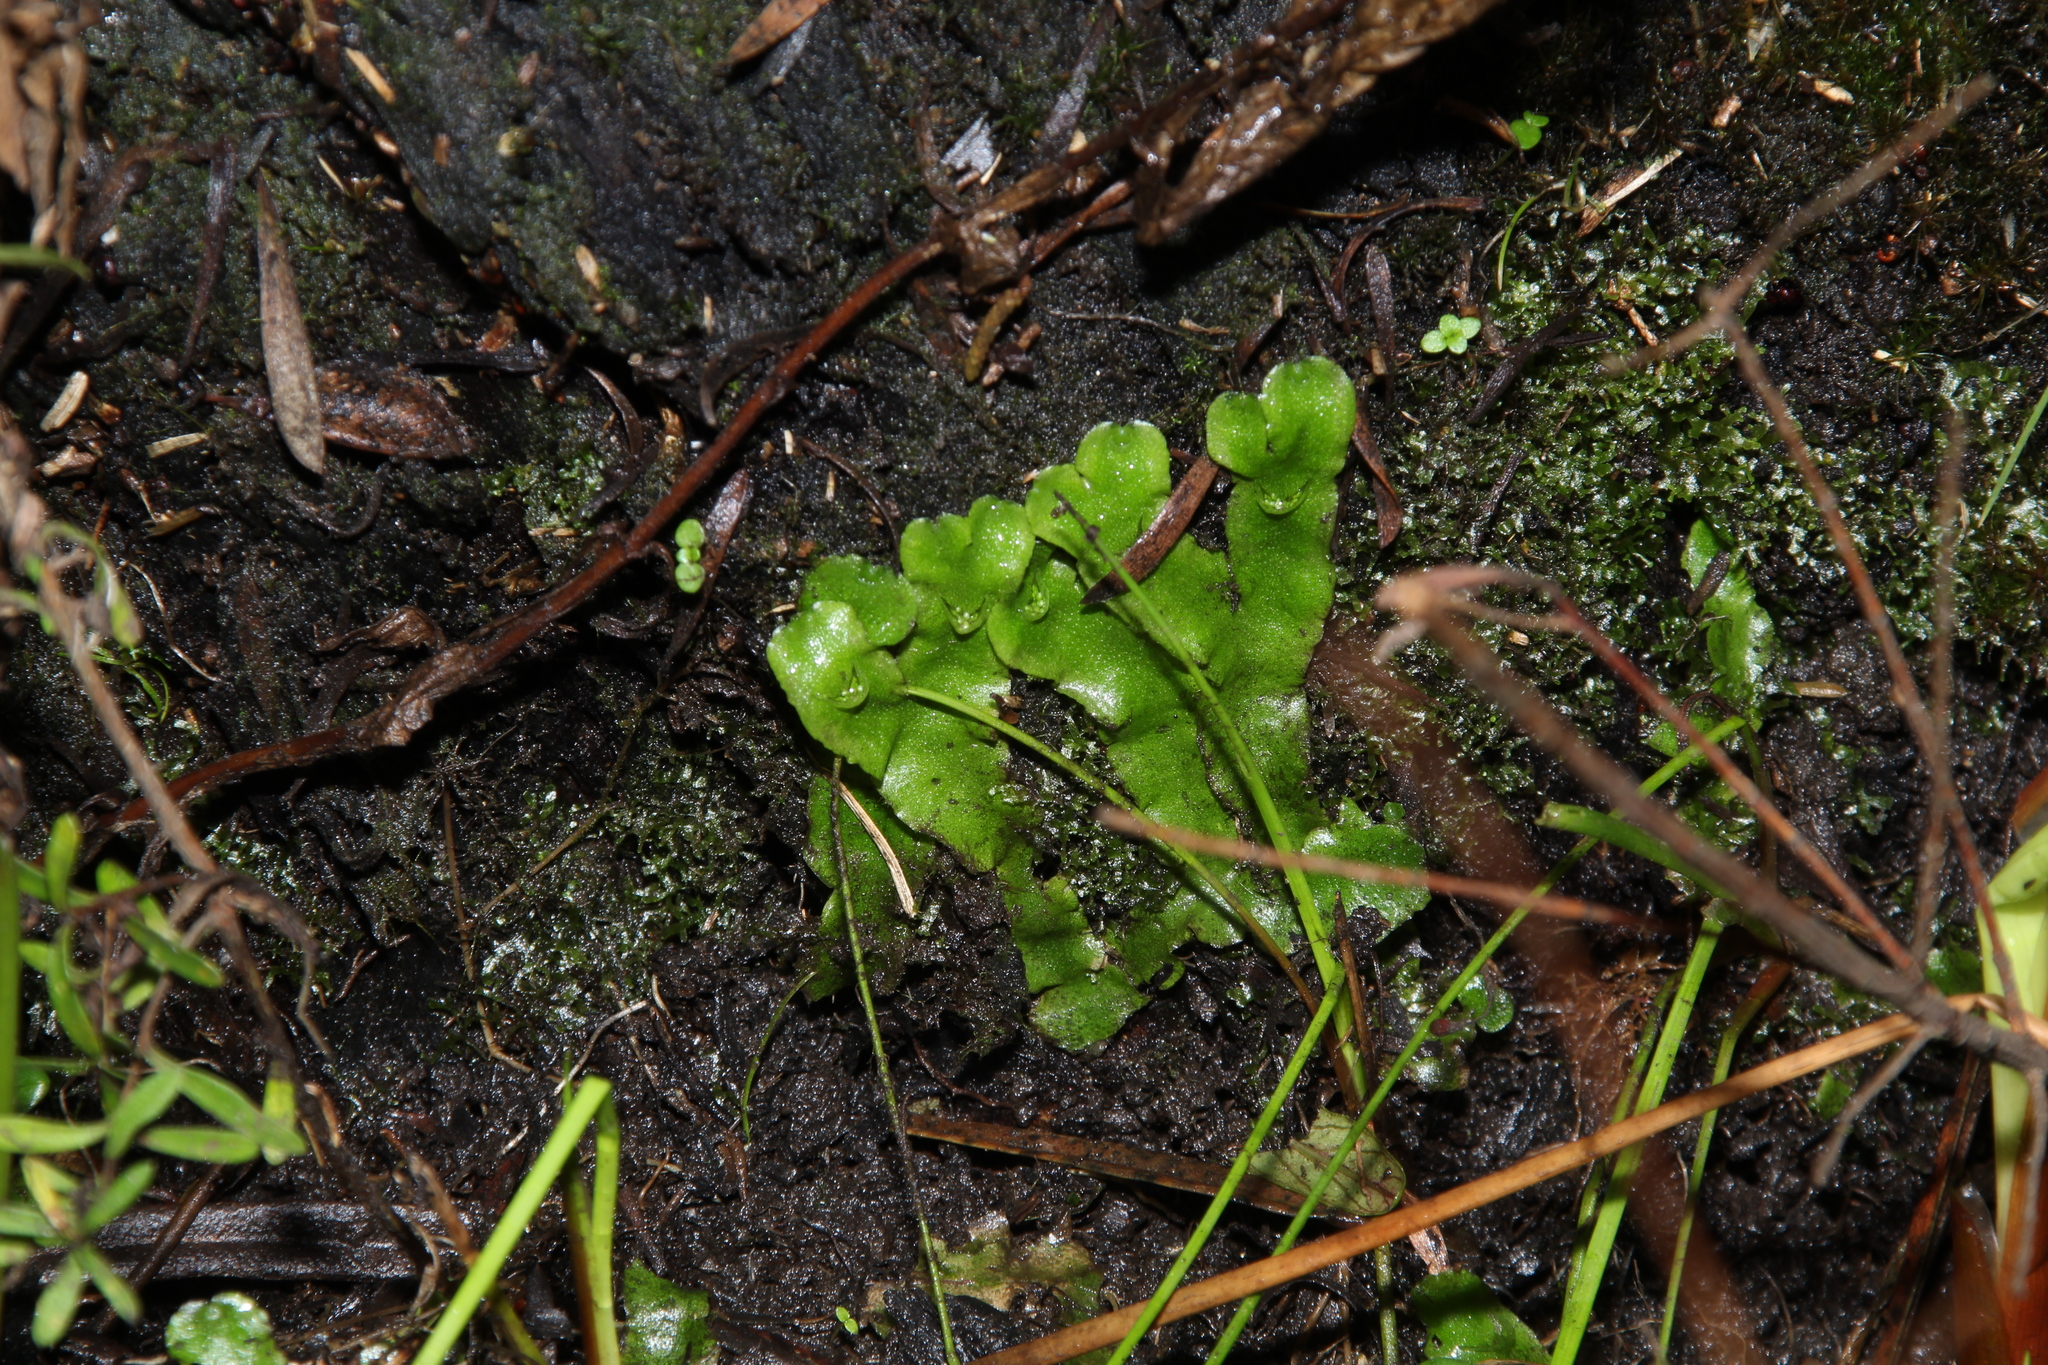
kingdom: Plantae
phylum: Marchantiophyta
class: Marchantiopsida
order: Lunulariales
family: Lunulariaceae
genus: Lunularia
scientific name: Lunularia cruciata
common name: Crescent-cup liverwort
